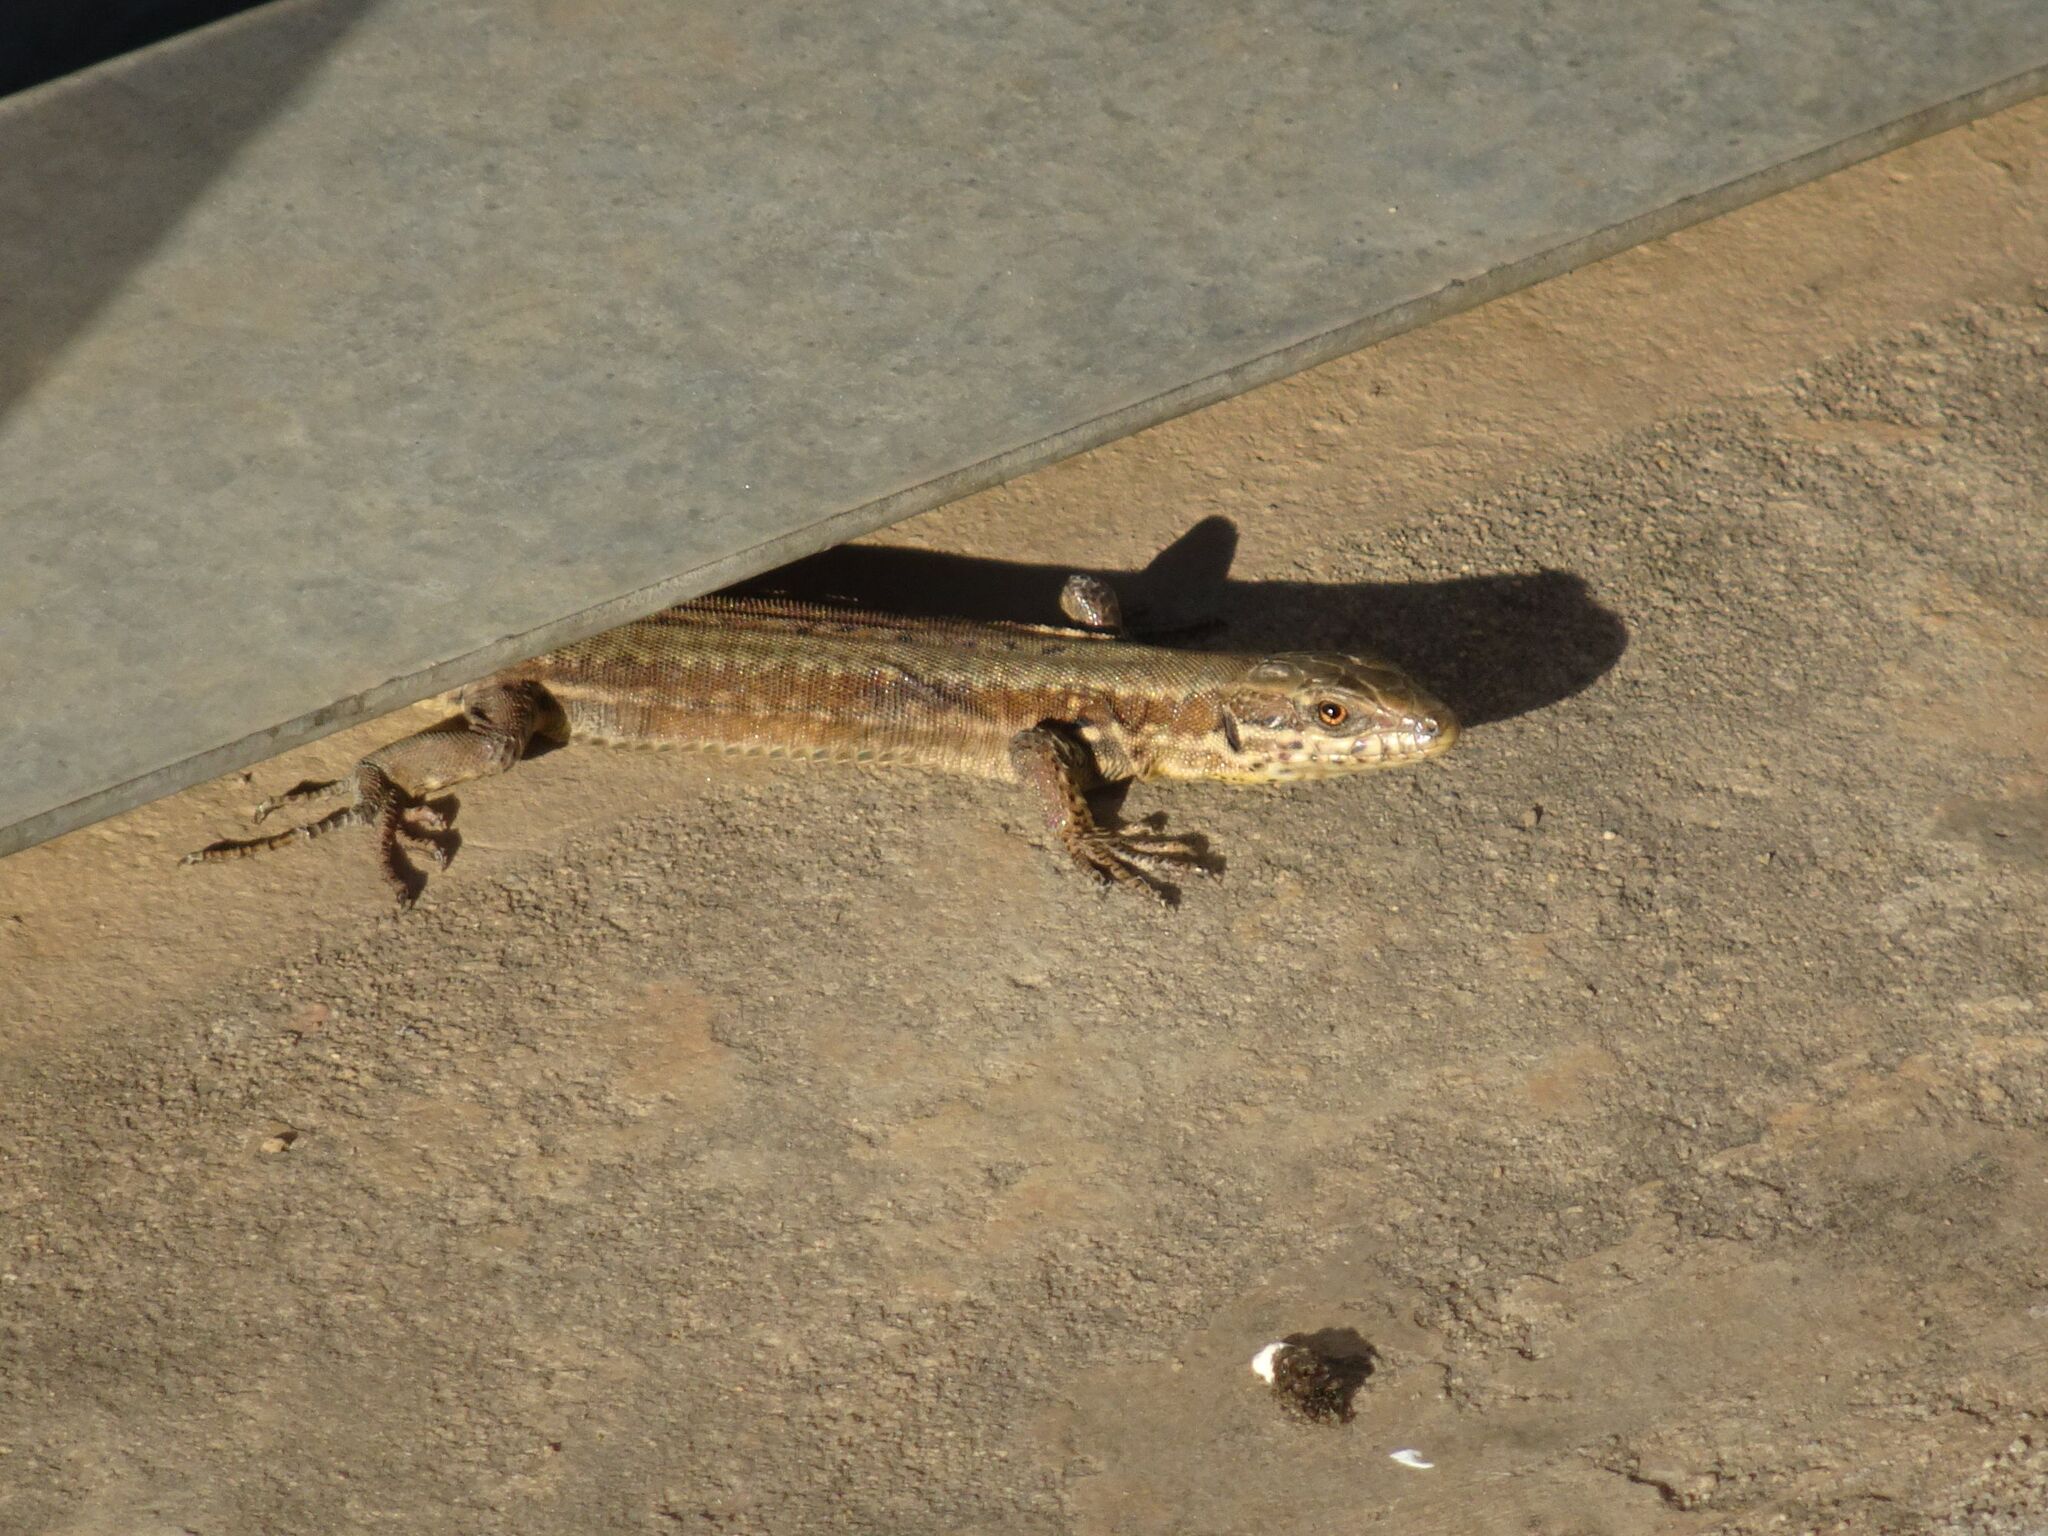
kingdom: Animalia
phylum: Chordata
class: Squamata
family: Lacertidae
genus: Podarcis
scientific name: Podarcis muralis
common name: Common wall lizard
